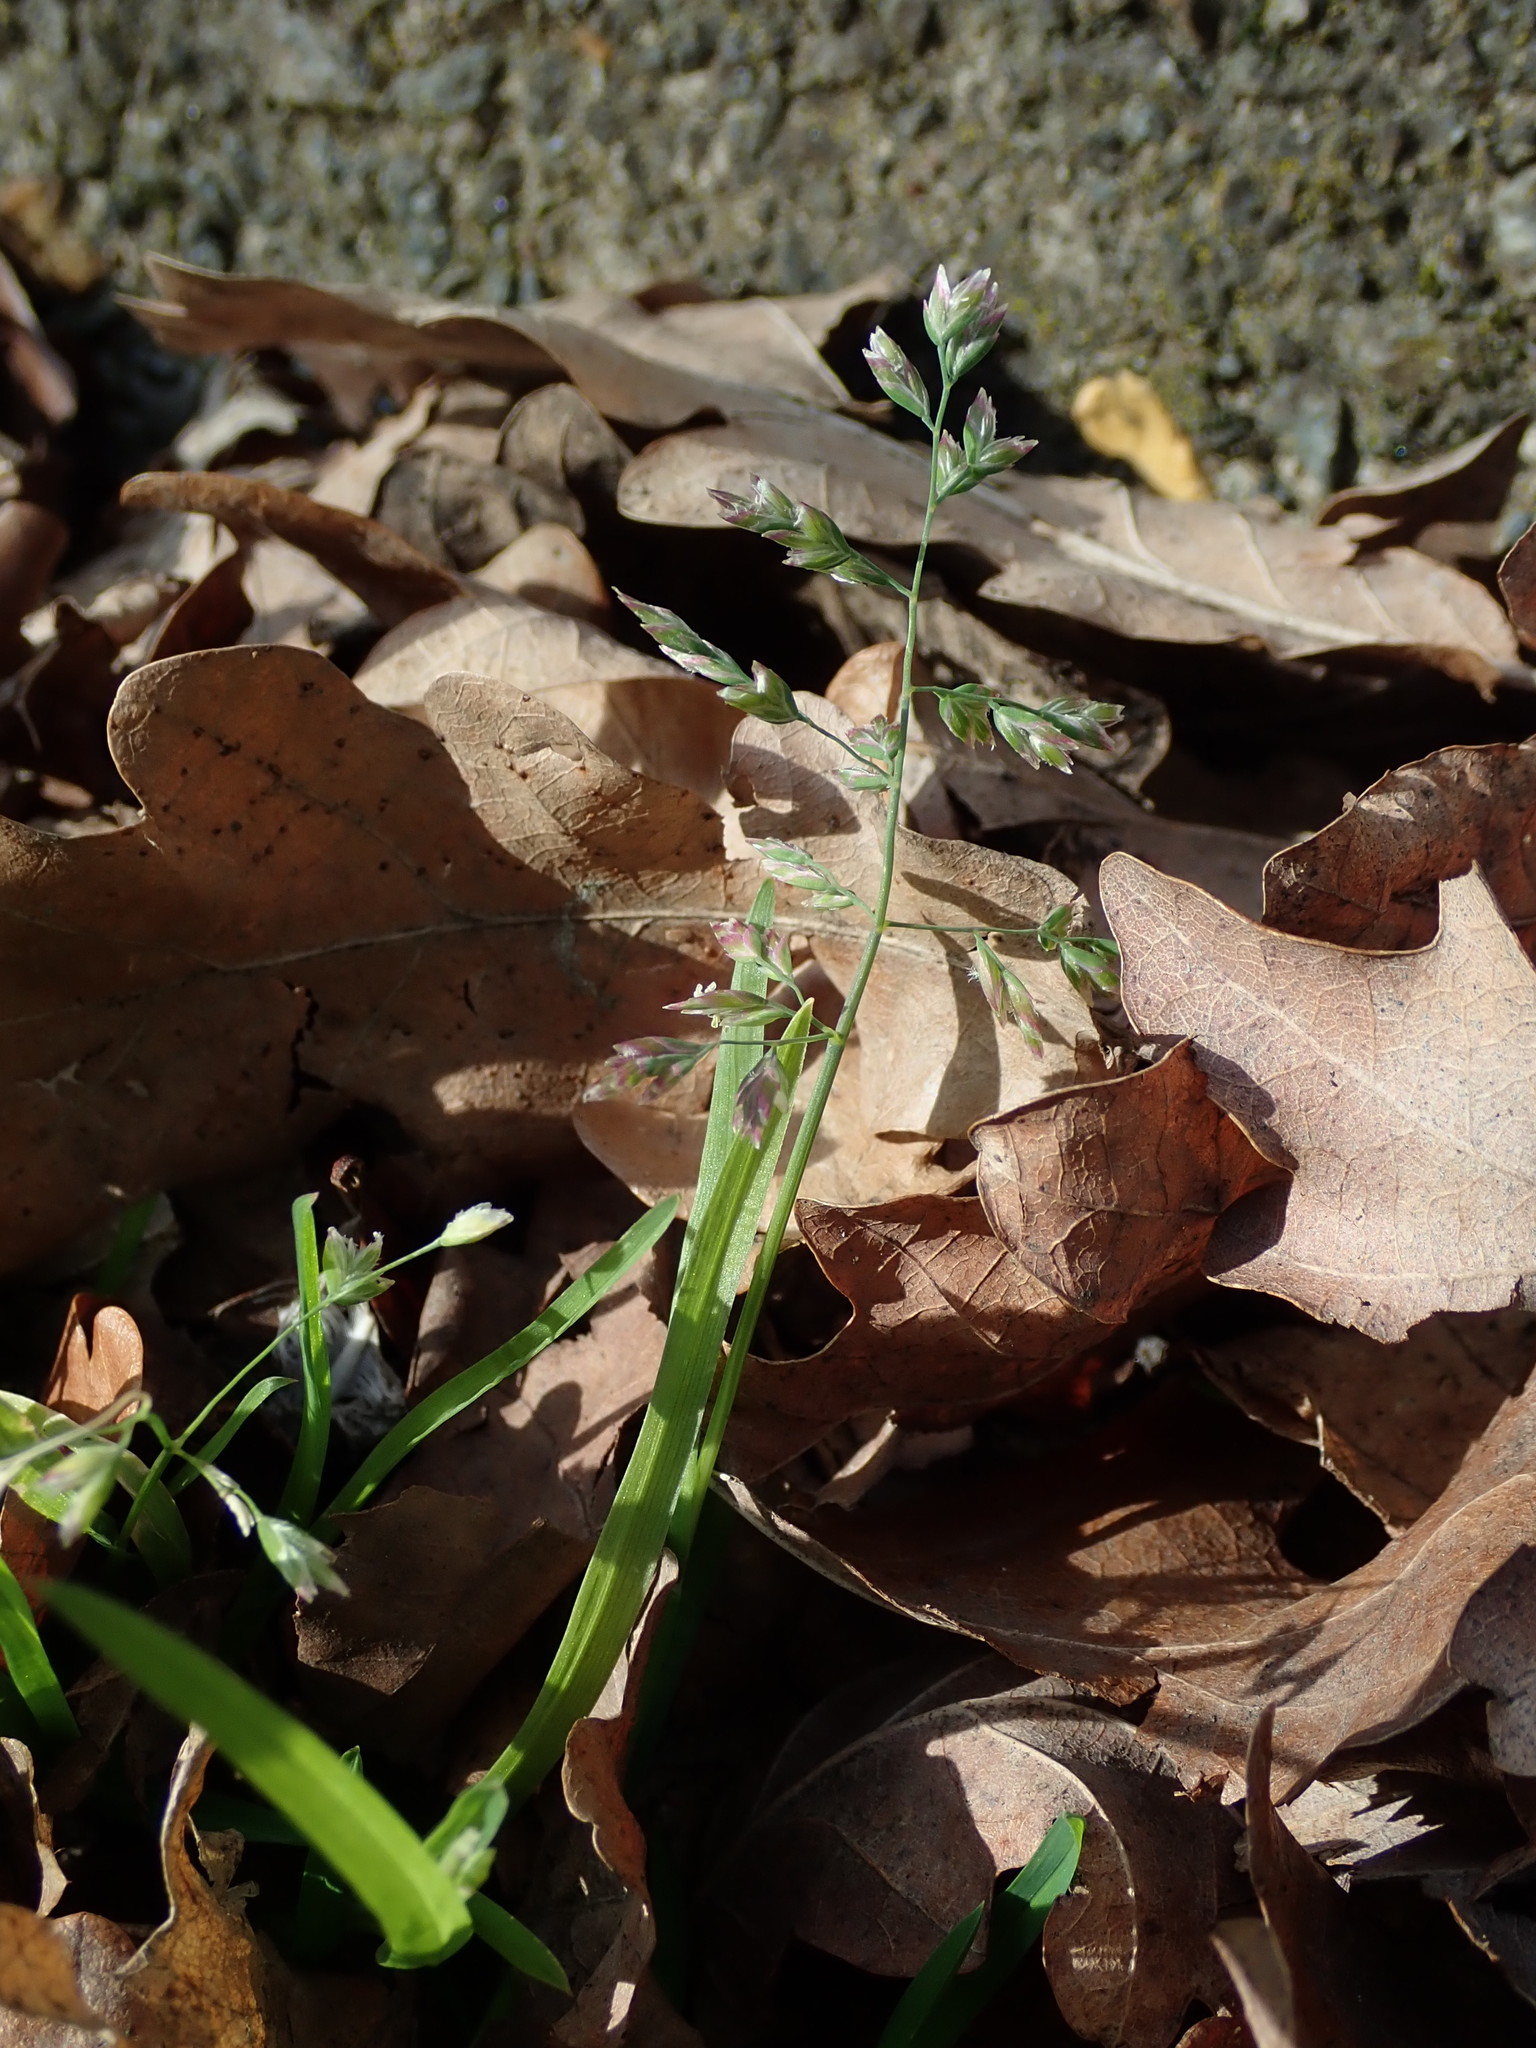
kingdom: Plantae
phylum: Tracheophyta
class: Liliopsida
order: Poales
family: Poaceae
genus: Poa
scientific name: Poa annua
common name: Annual bluegrass
